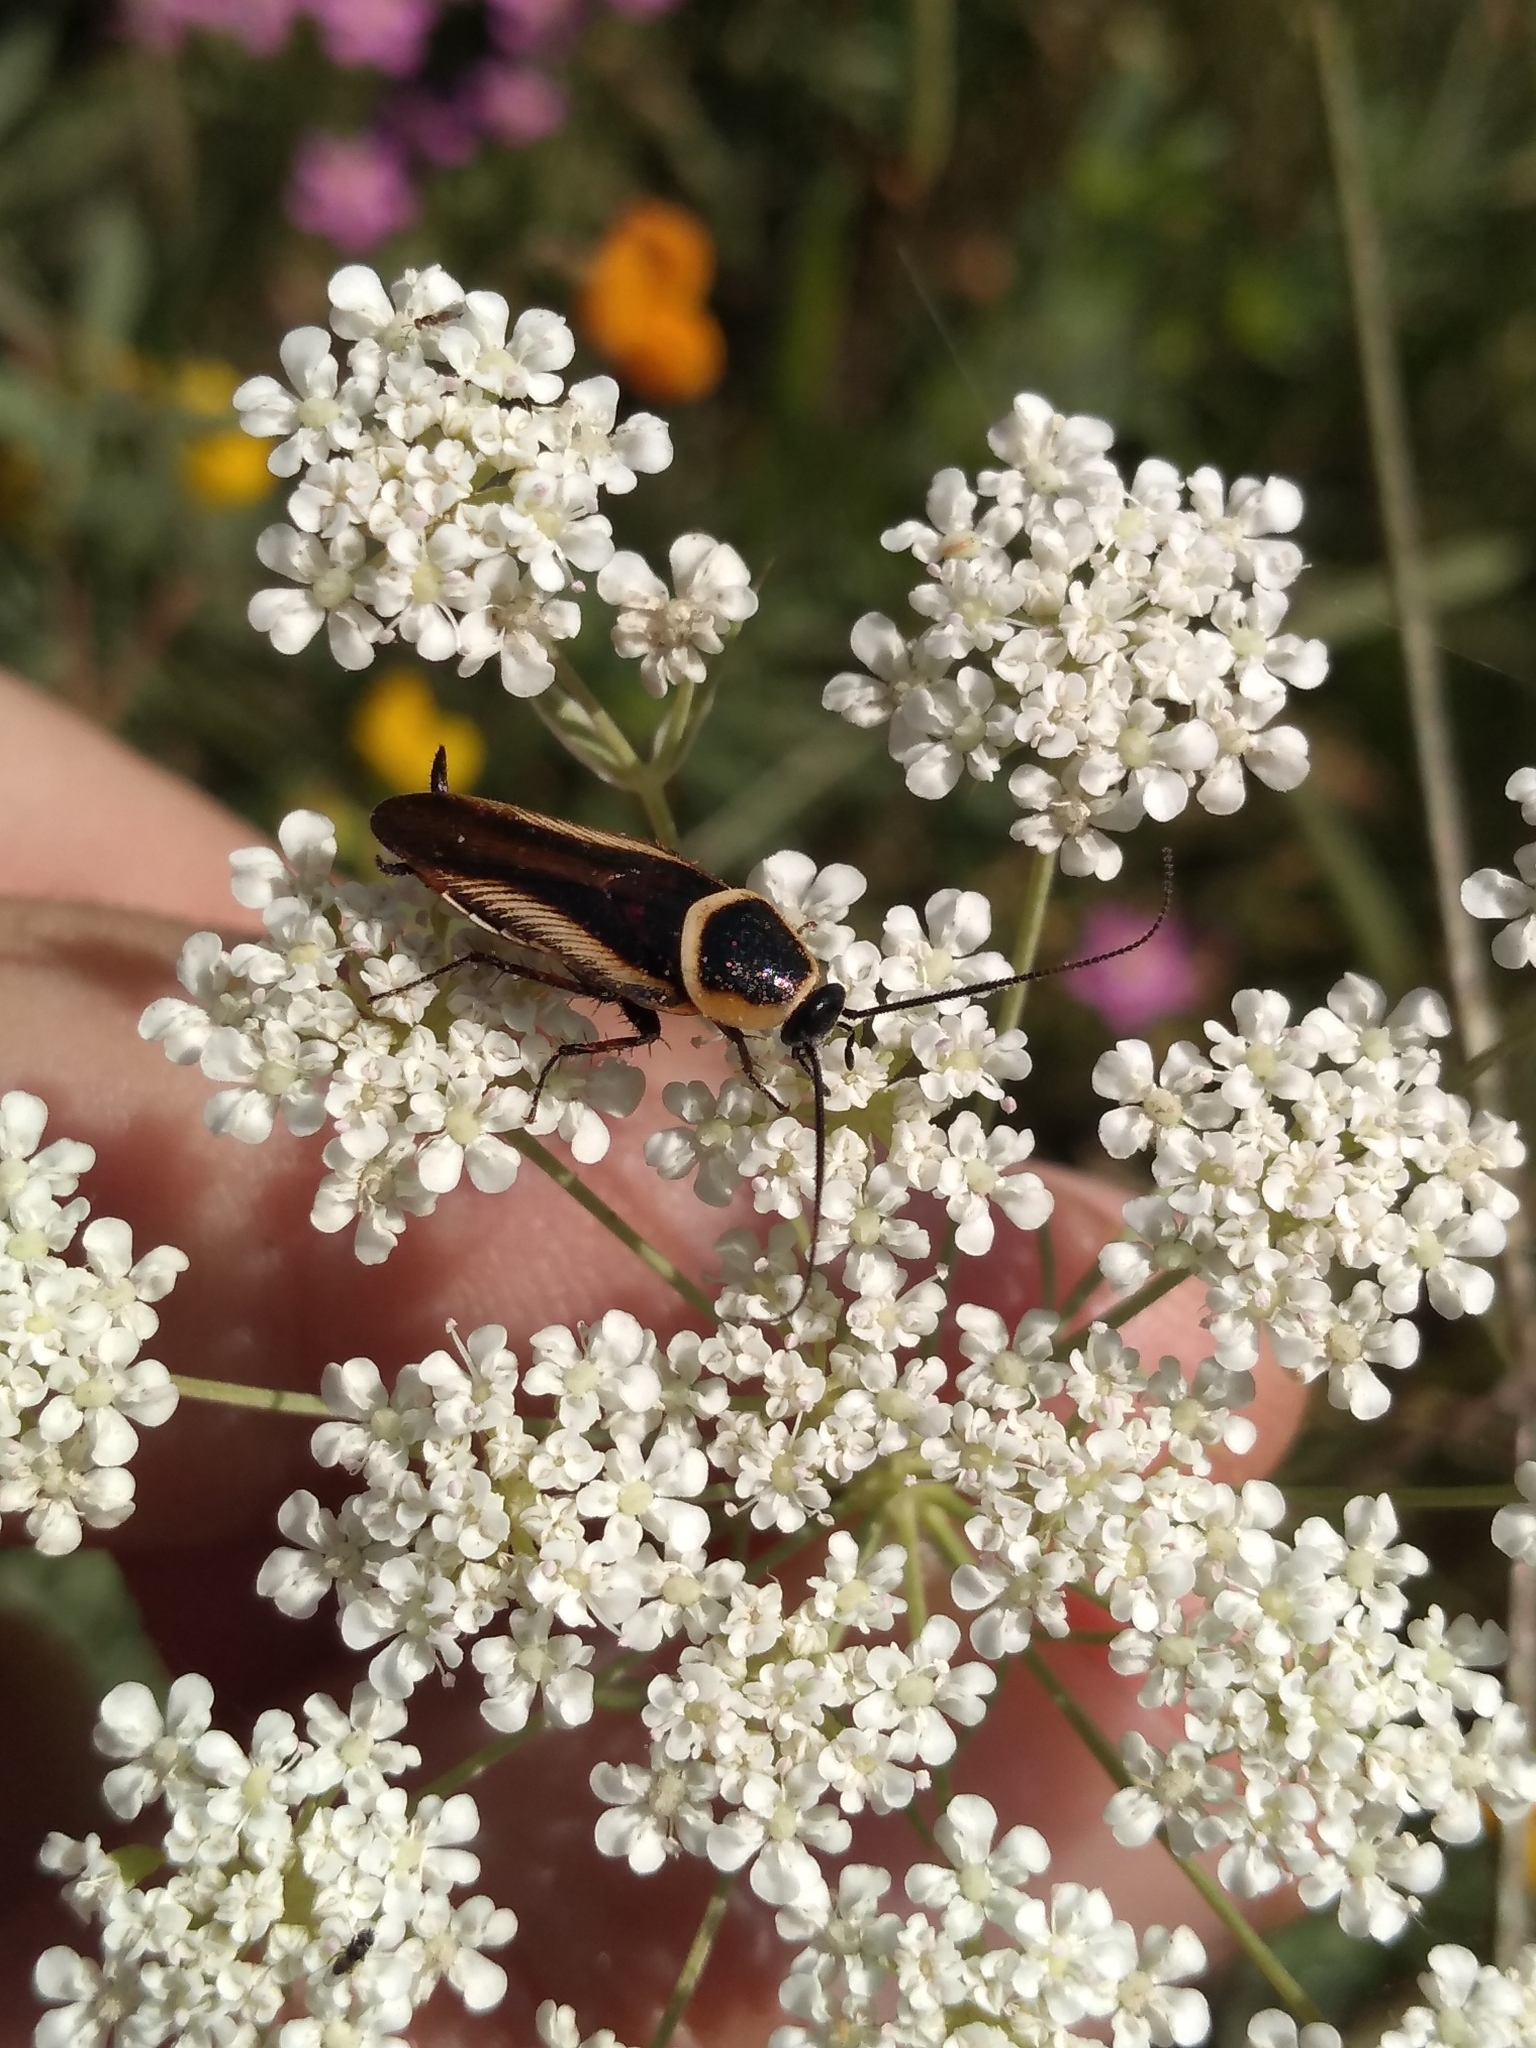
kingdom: Animalia
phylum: Arthropoda
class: Insecta
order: Blattodea
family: Ectobiidae
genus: Pseudomops
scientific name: Pseudomops neglectus
